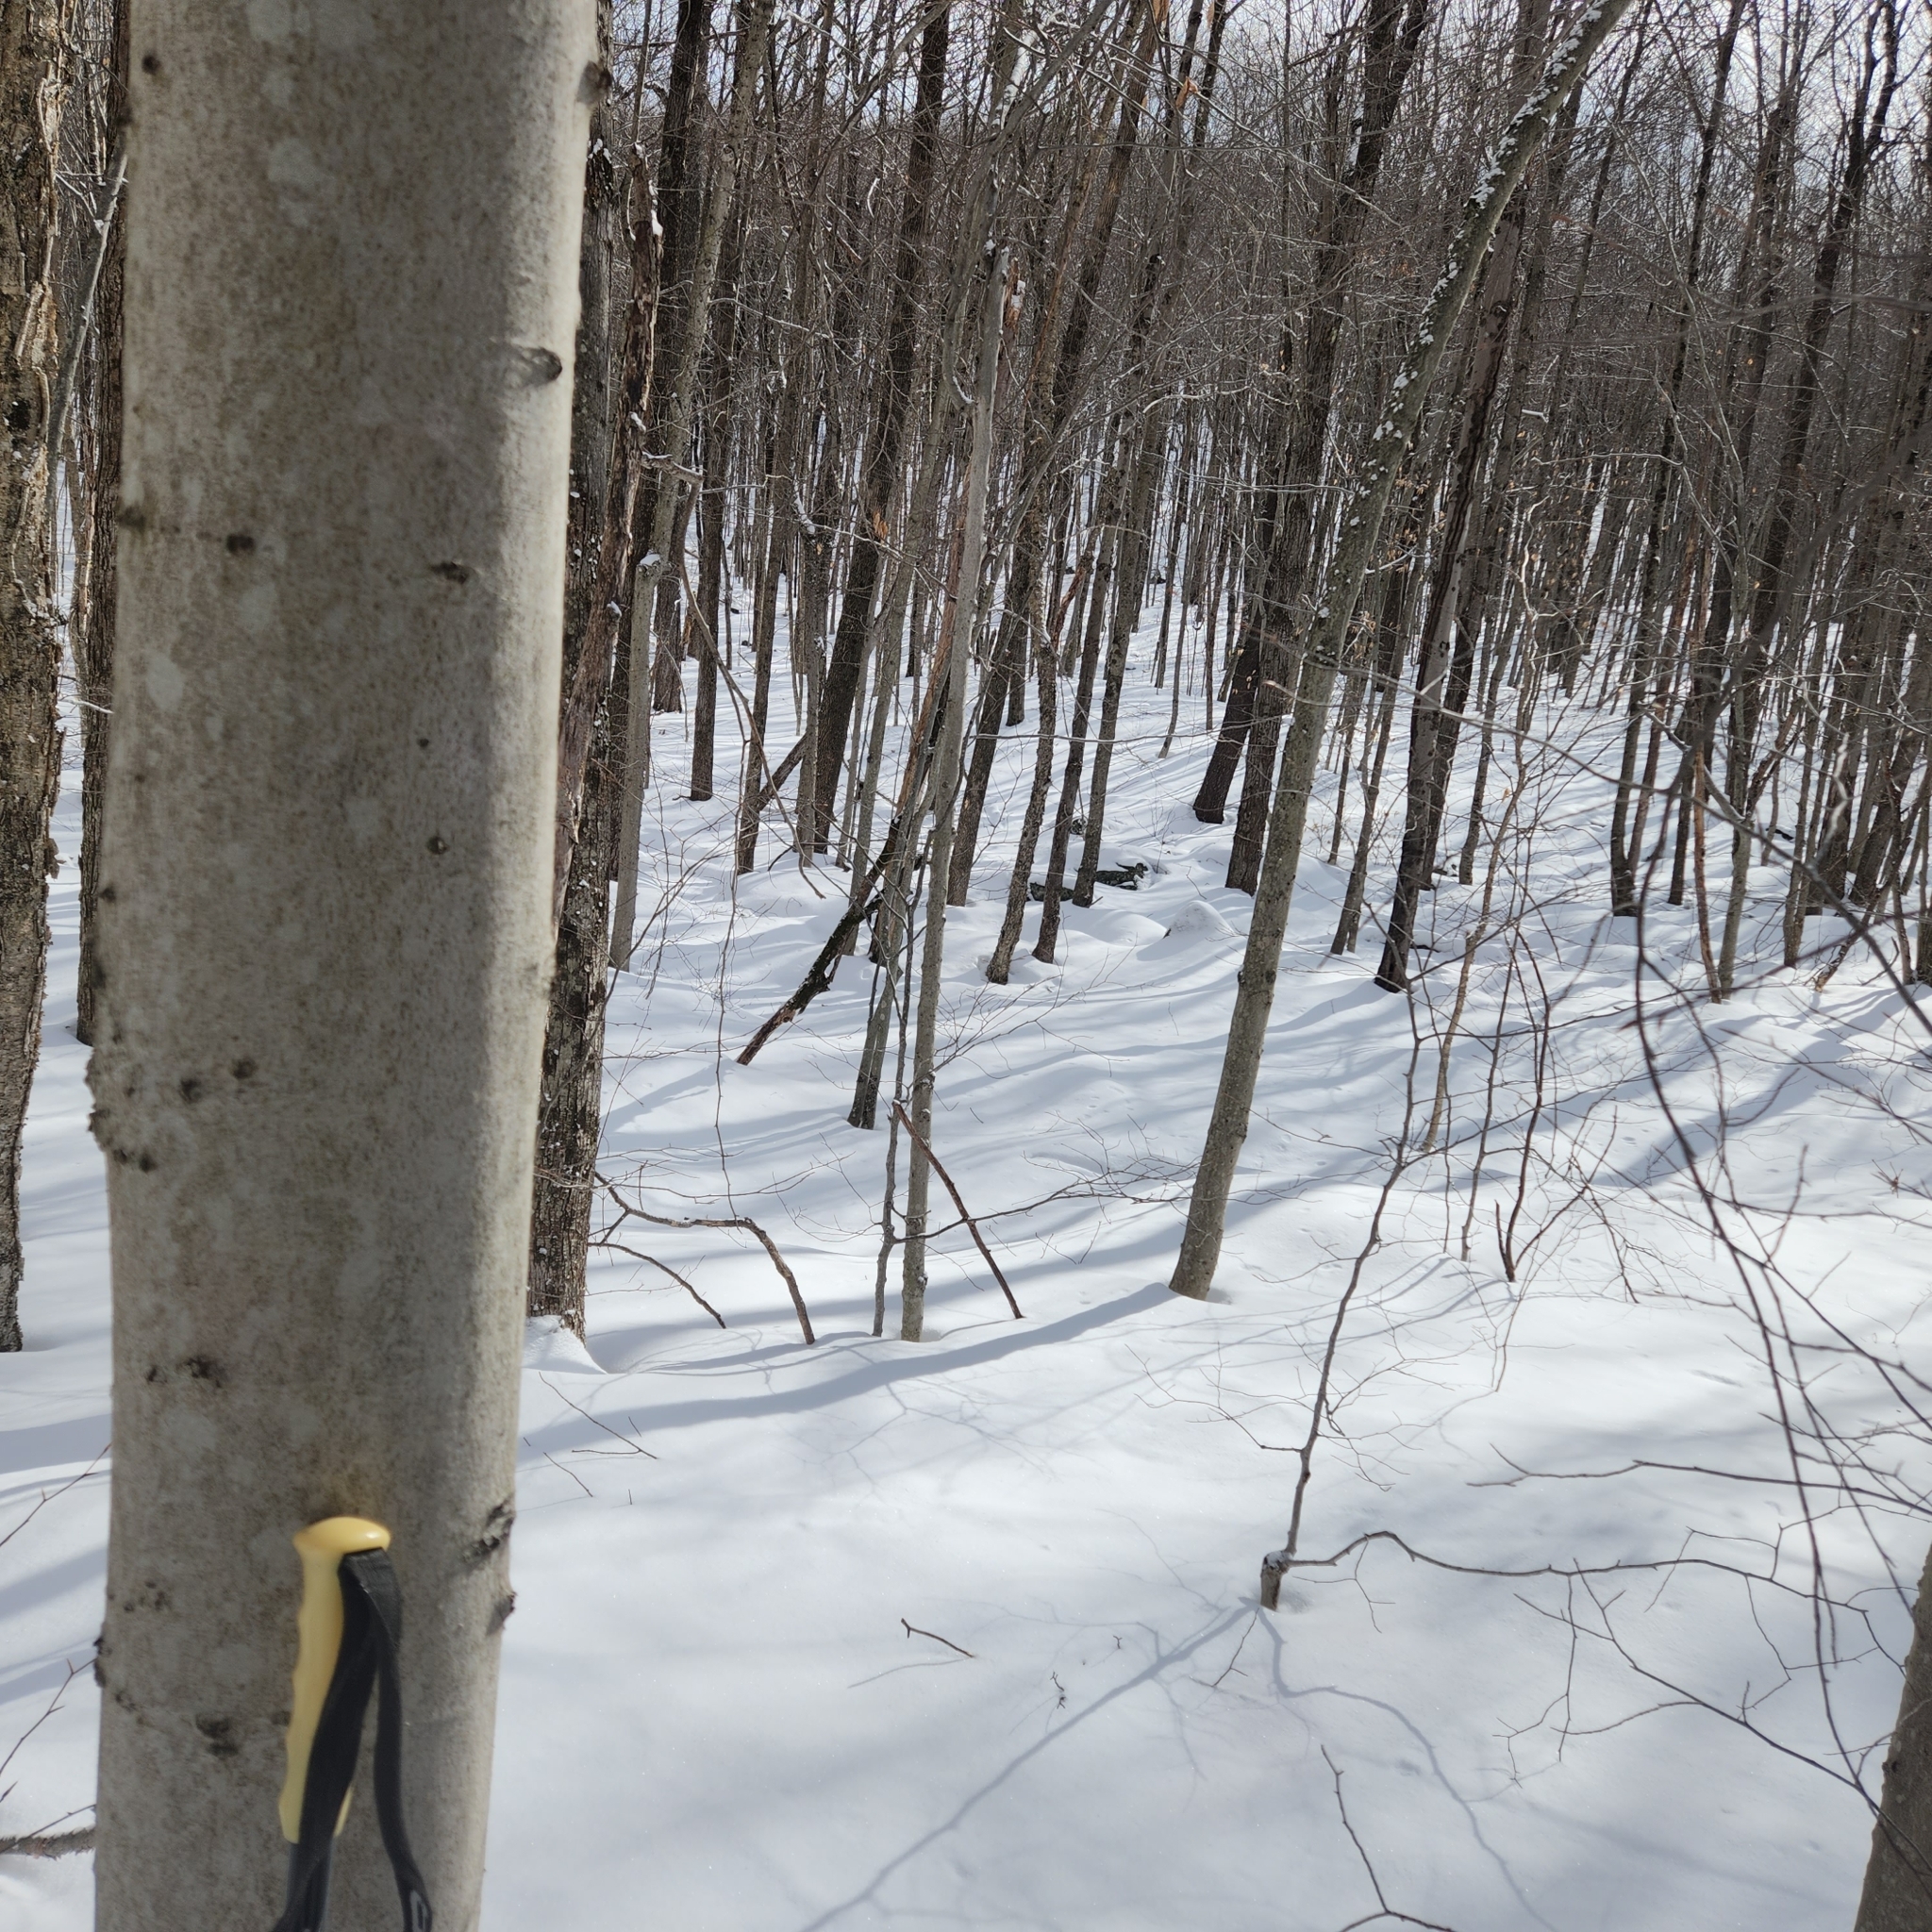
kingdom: Plantae
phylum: Tracheophyta
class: Magnoliopsida
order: Fagales
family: Fagaceae
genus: Fagus
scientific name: Fagus grandifolia
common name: American beech
